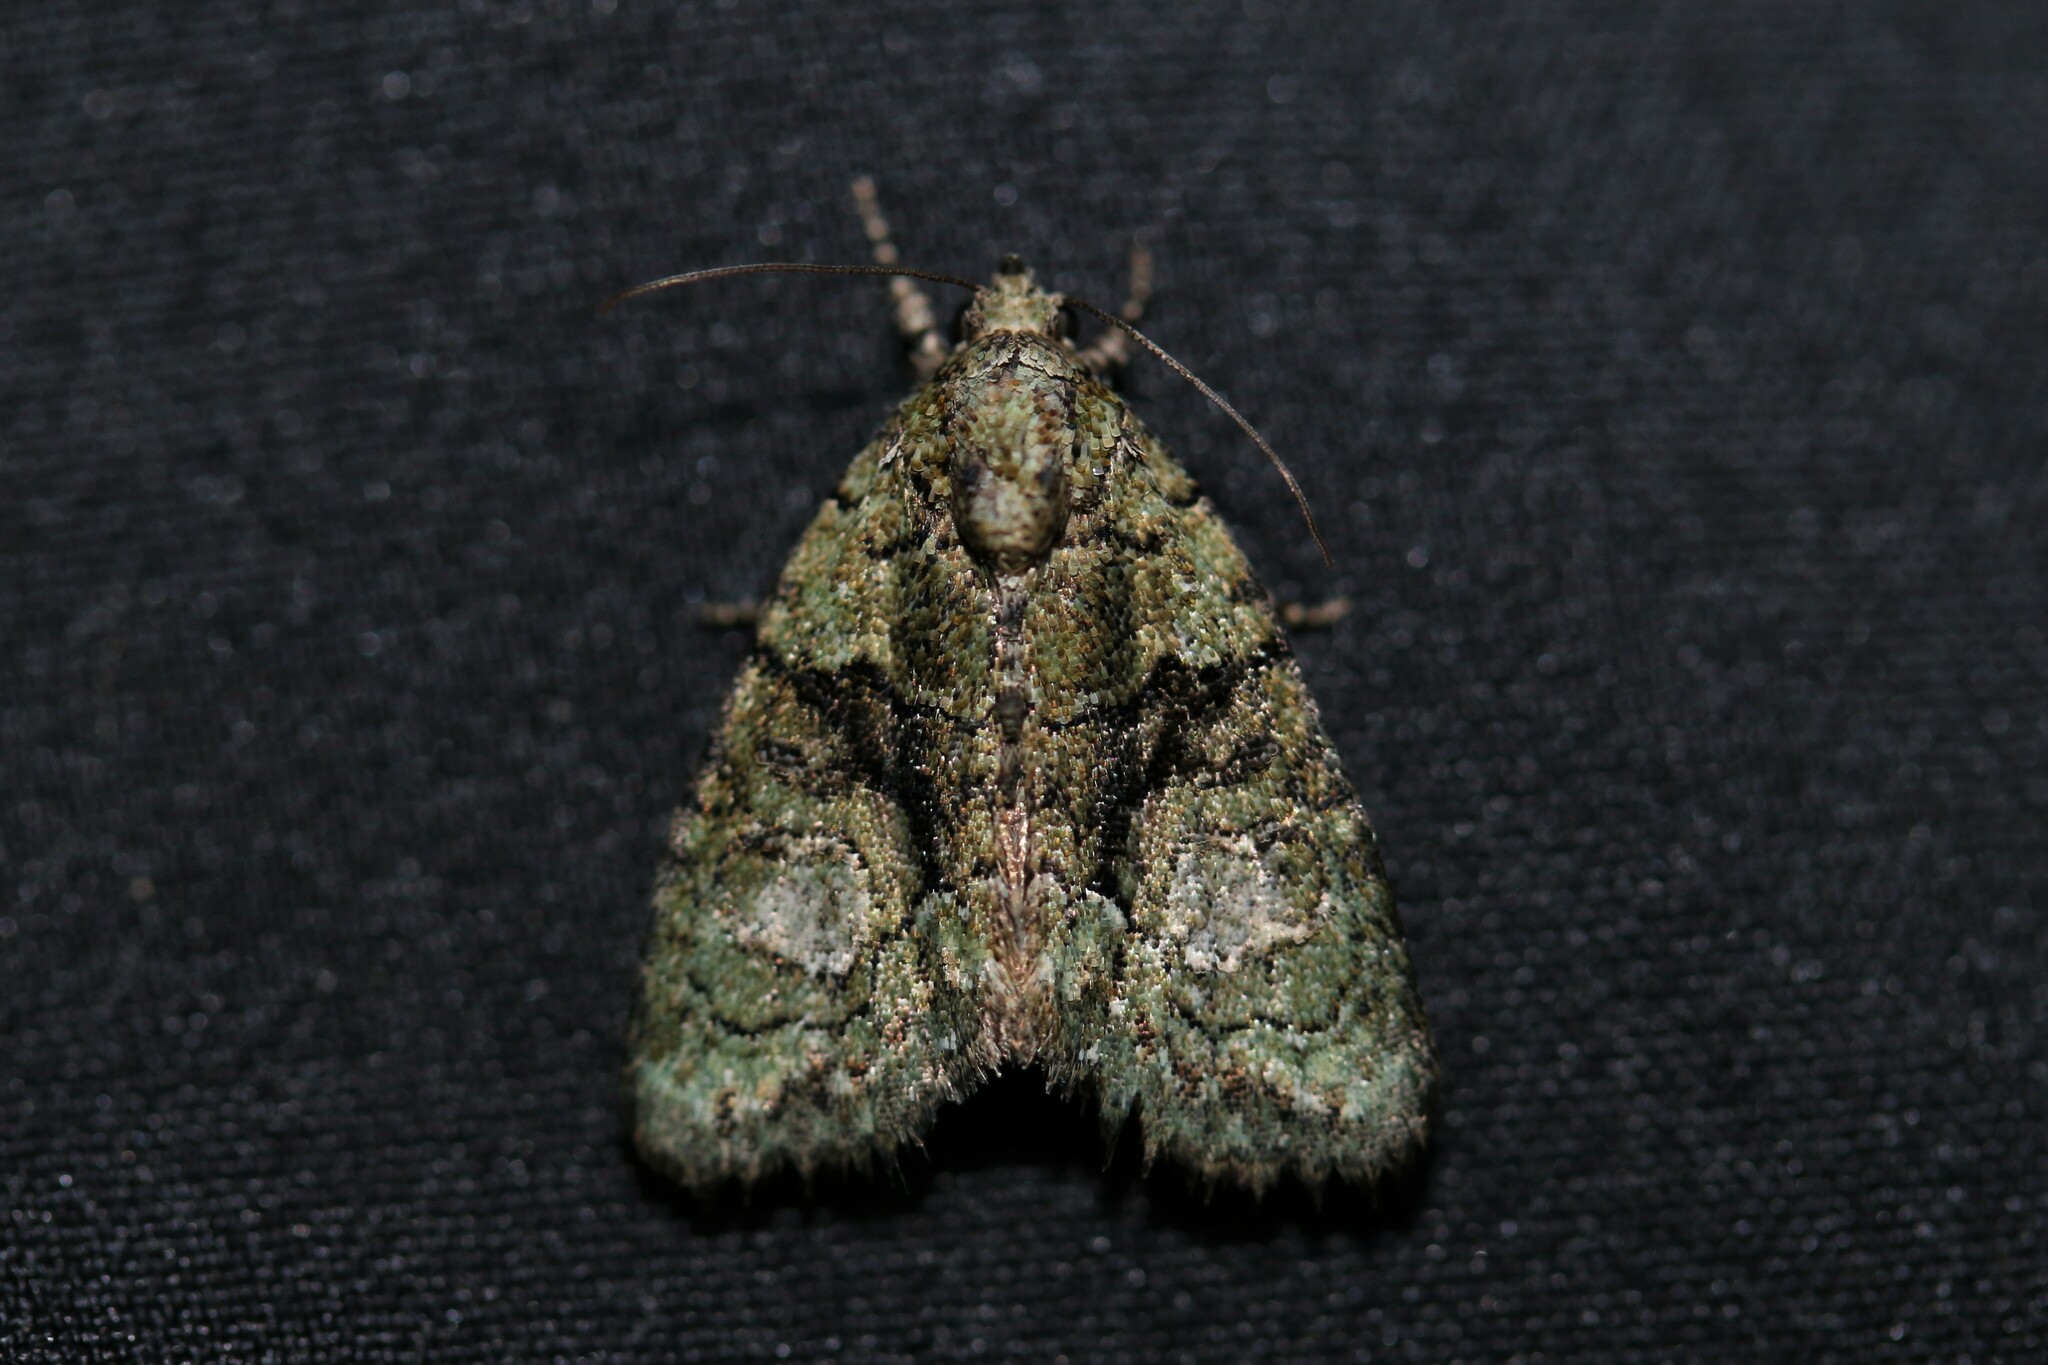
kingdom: Animalia
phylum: Arthropoda
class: Insecta
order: Lepidoptera
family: Noctuidae
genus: Cryphia
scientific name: Cryphia algae
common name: Tree-lichen beauty
